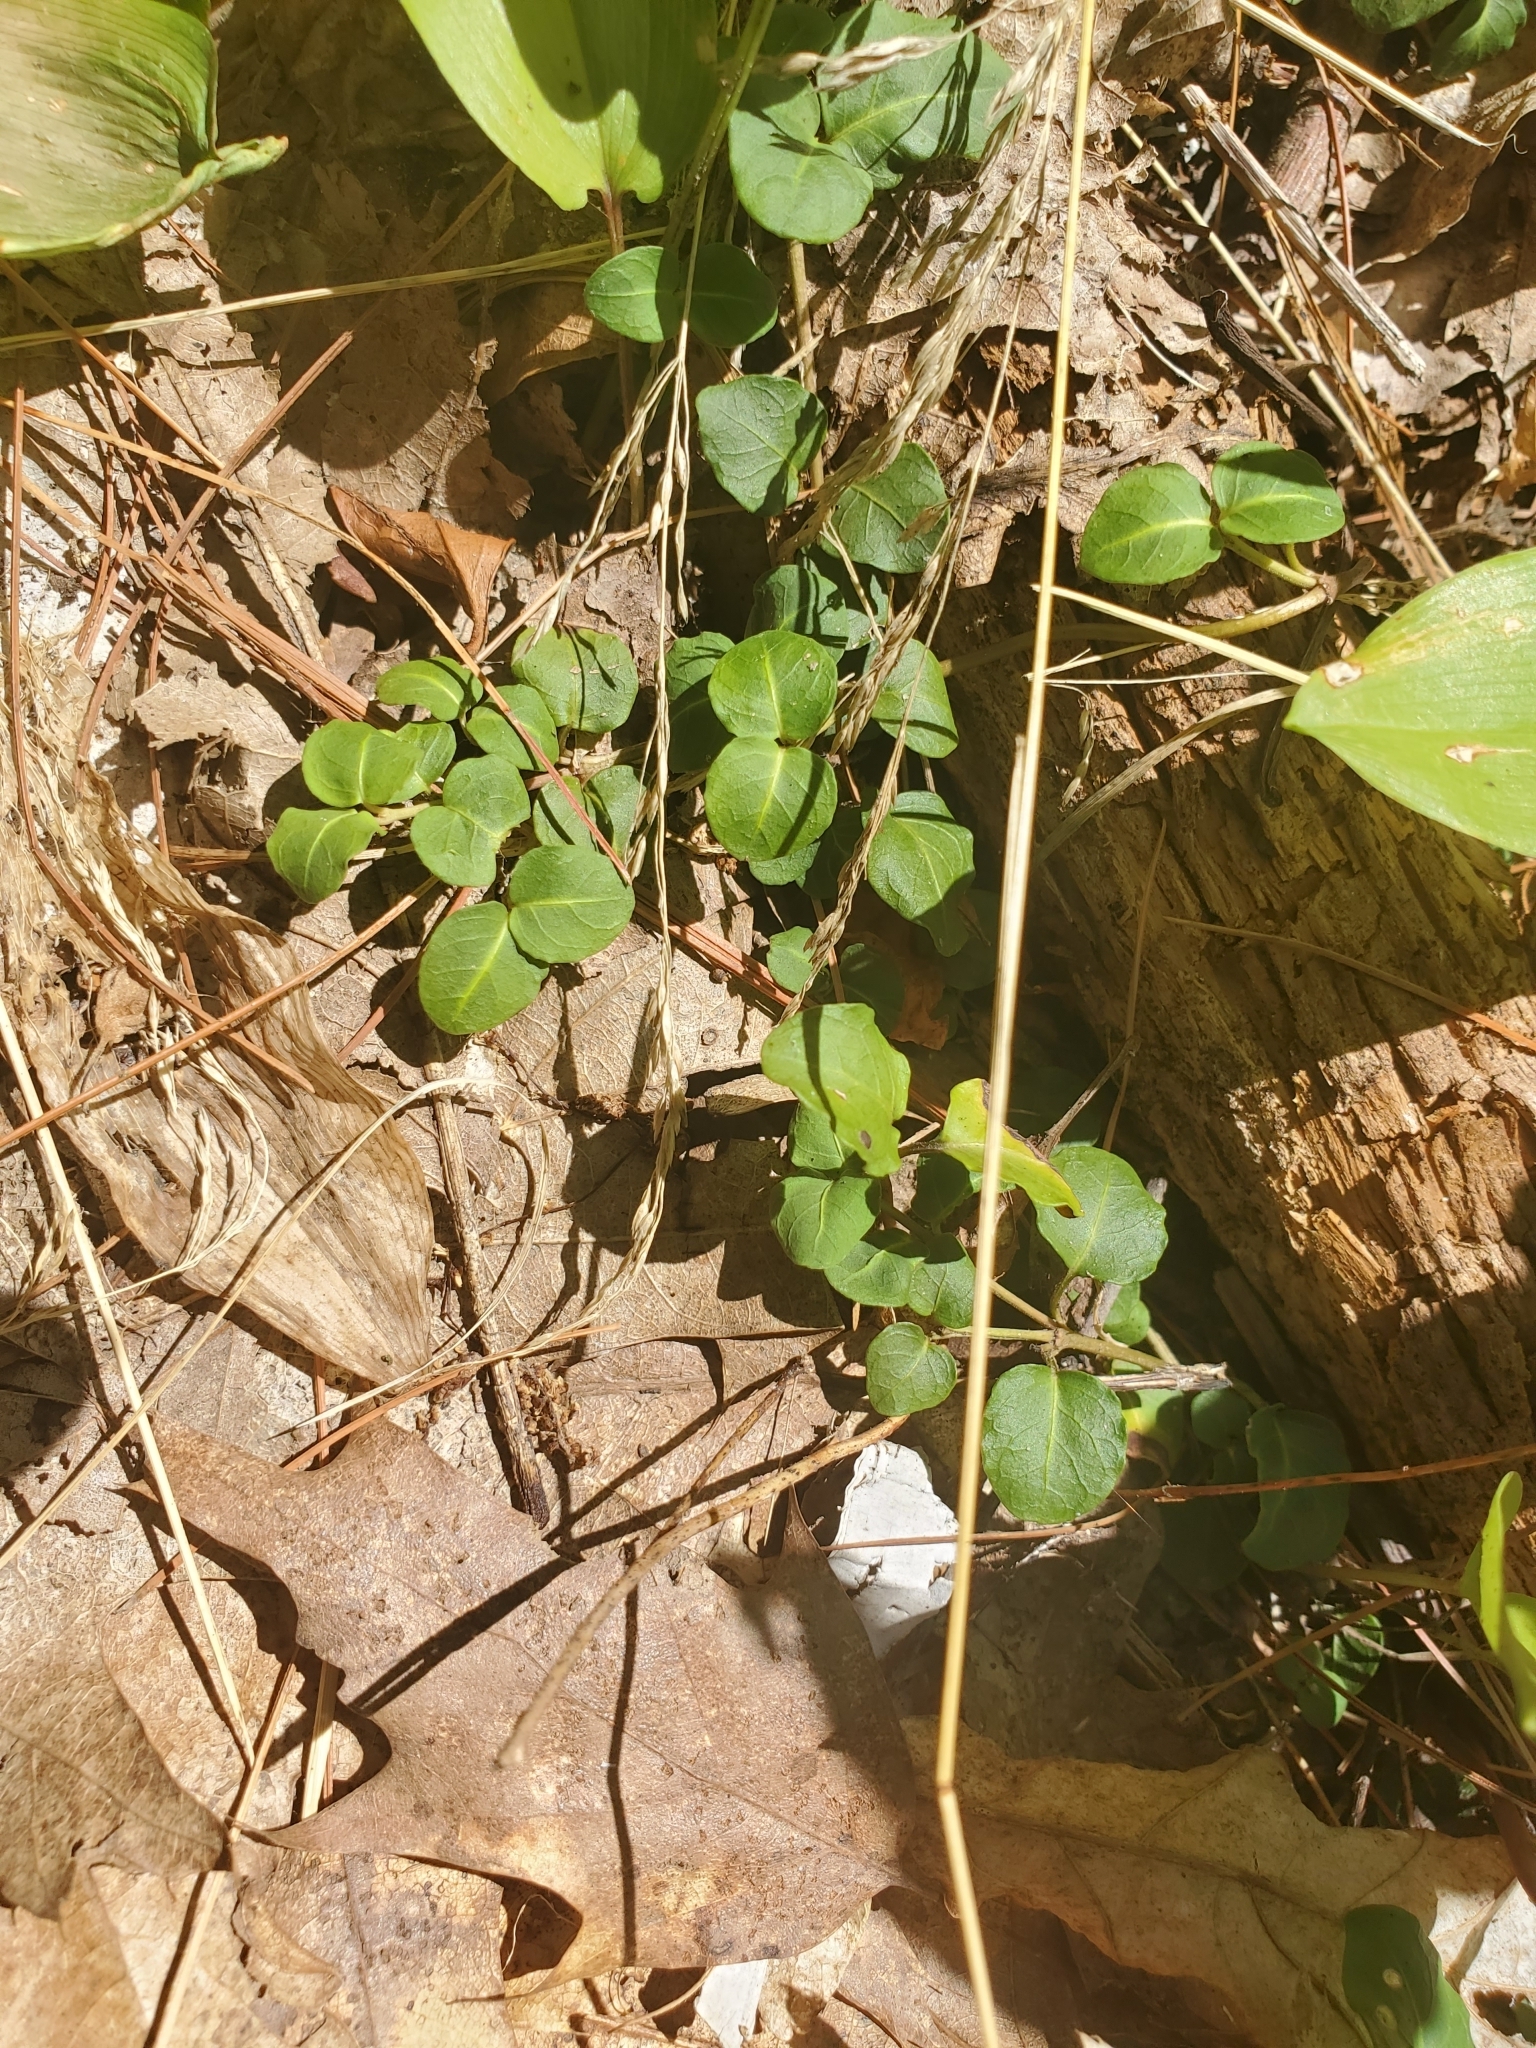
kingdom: Plantae
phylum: Tracheophyta
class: Magnoliopsida
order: Gentianales
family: Rubiaceae
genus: Mitchella
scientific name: Mitchella repens
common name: Partridge-berry
